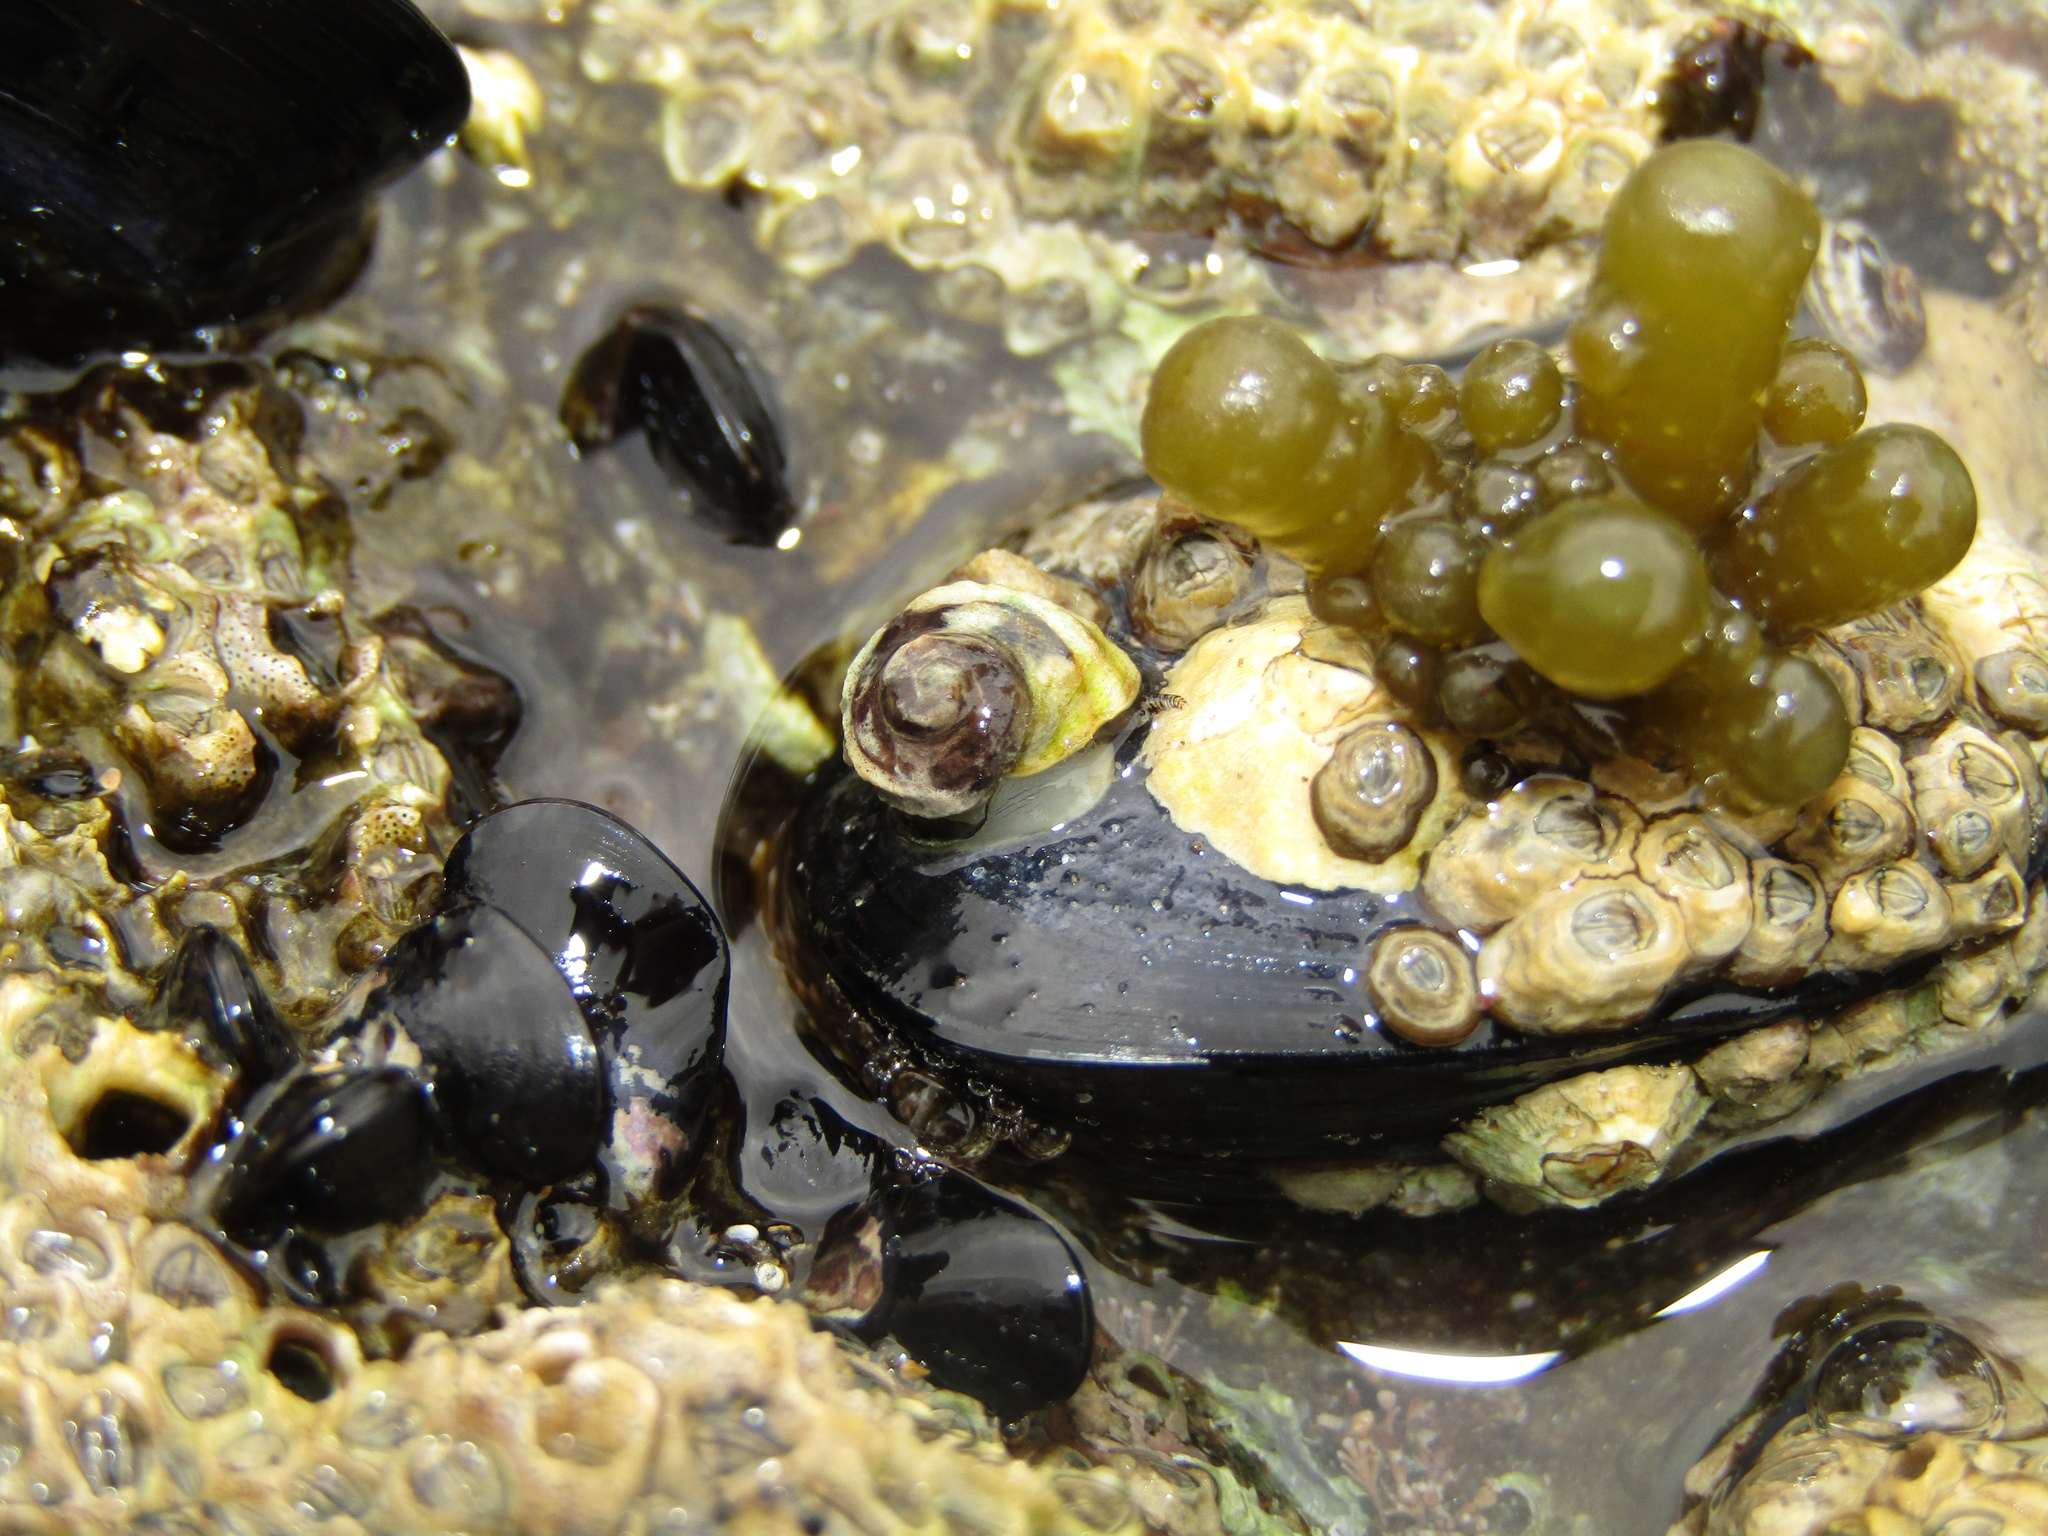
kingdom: Animalia
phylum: Mollusca
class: Gastropoda
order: Littorinimorpha
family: Littorinidae
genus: Risellopsis
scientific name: Risellopsis varia
